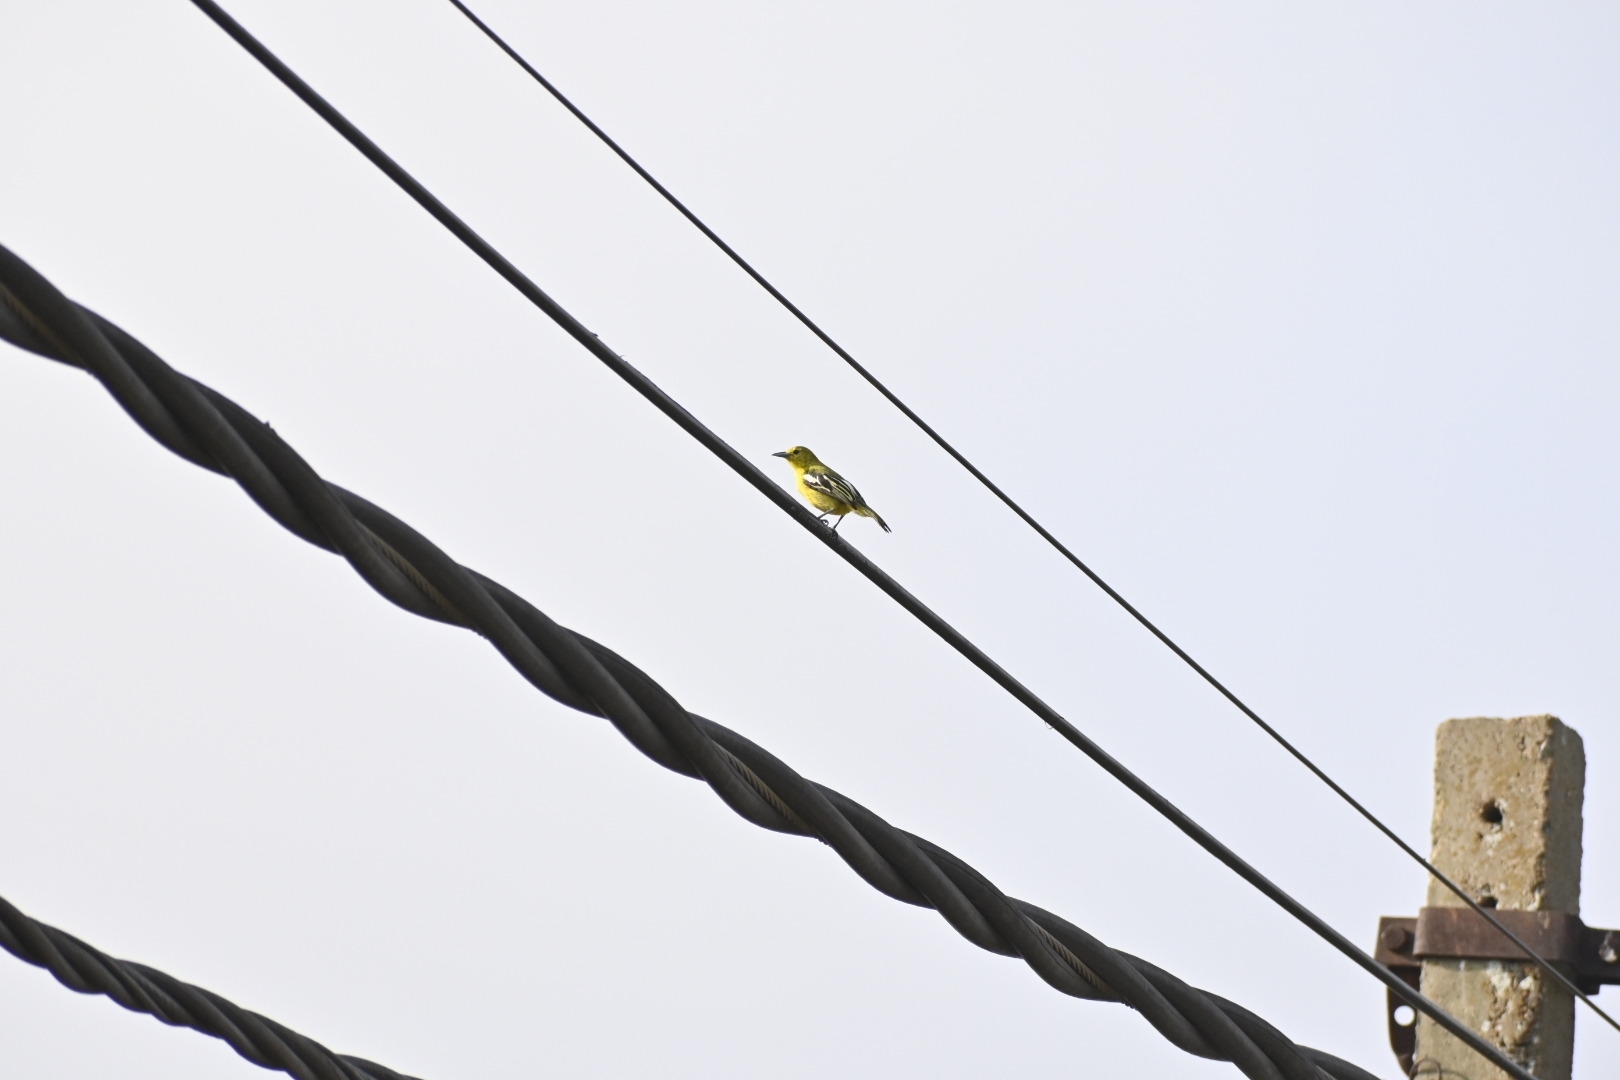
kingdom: Animalia
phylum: Chordata
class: Aves
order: Passeriformes
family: Aegithinidae
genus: Aegithina
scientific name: Aegithina tiphia
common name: Common iora
